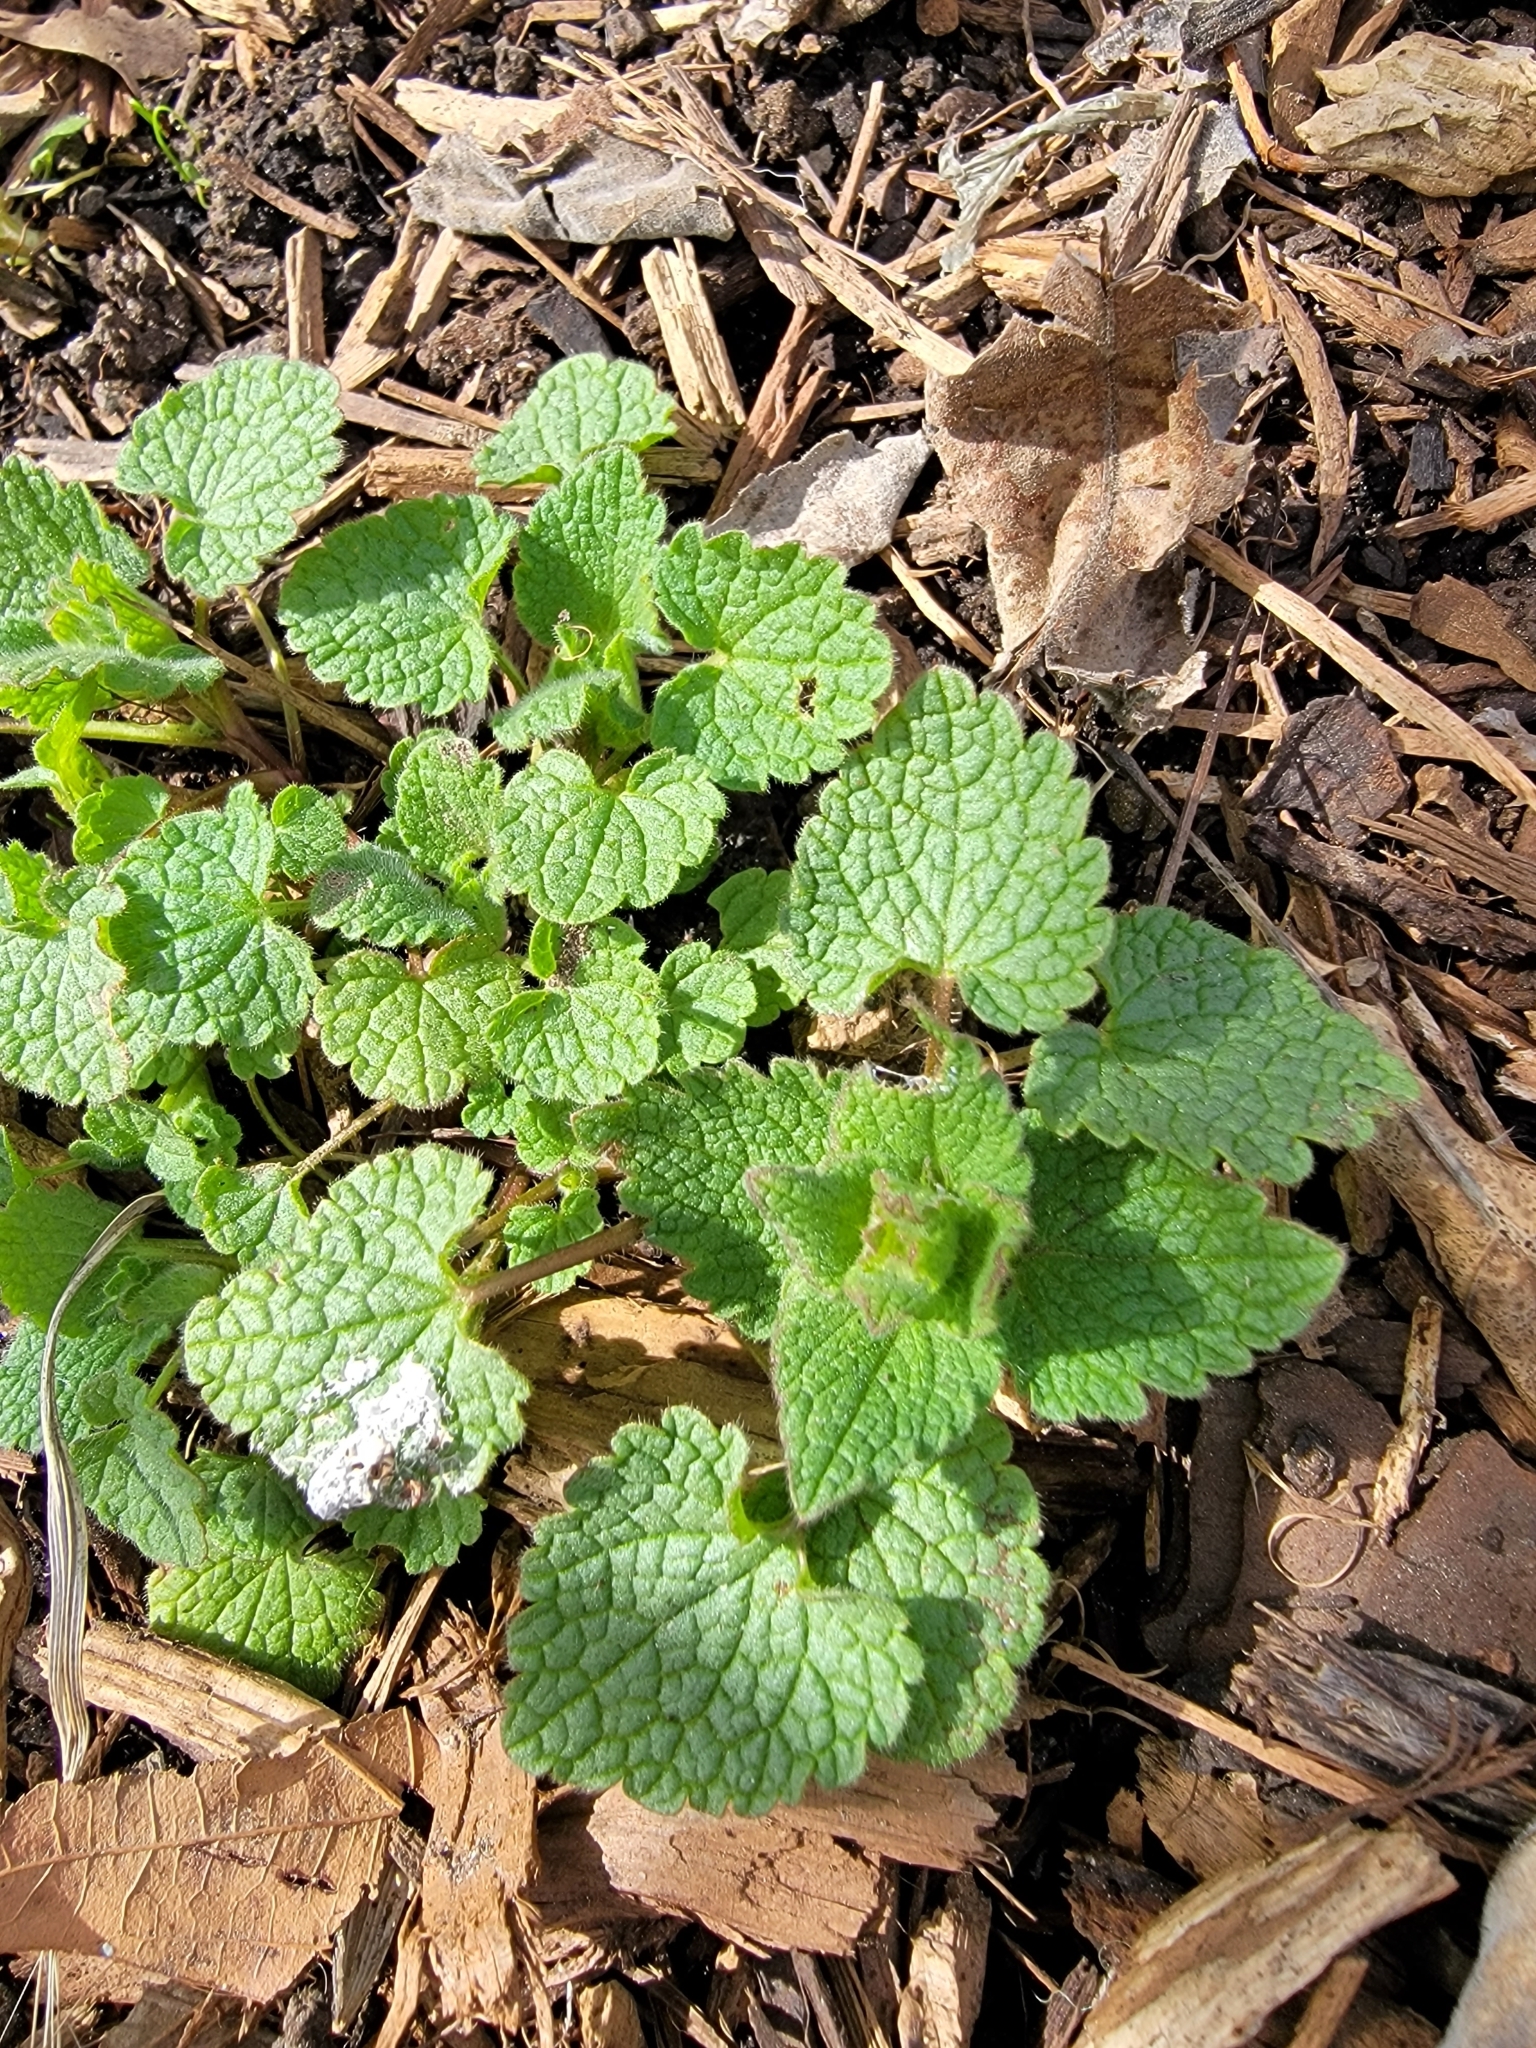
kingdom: Plantae
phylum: Tracheophyta
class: Magnoliopsida
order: Lamiales
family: Lamiaceae
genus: Lamium
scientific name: Lamium purpureum
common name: Red dead-nettle
